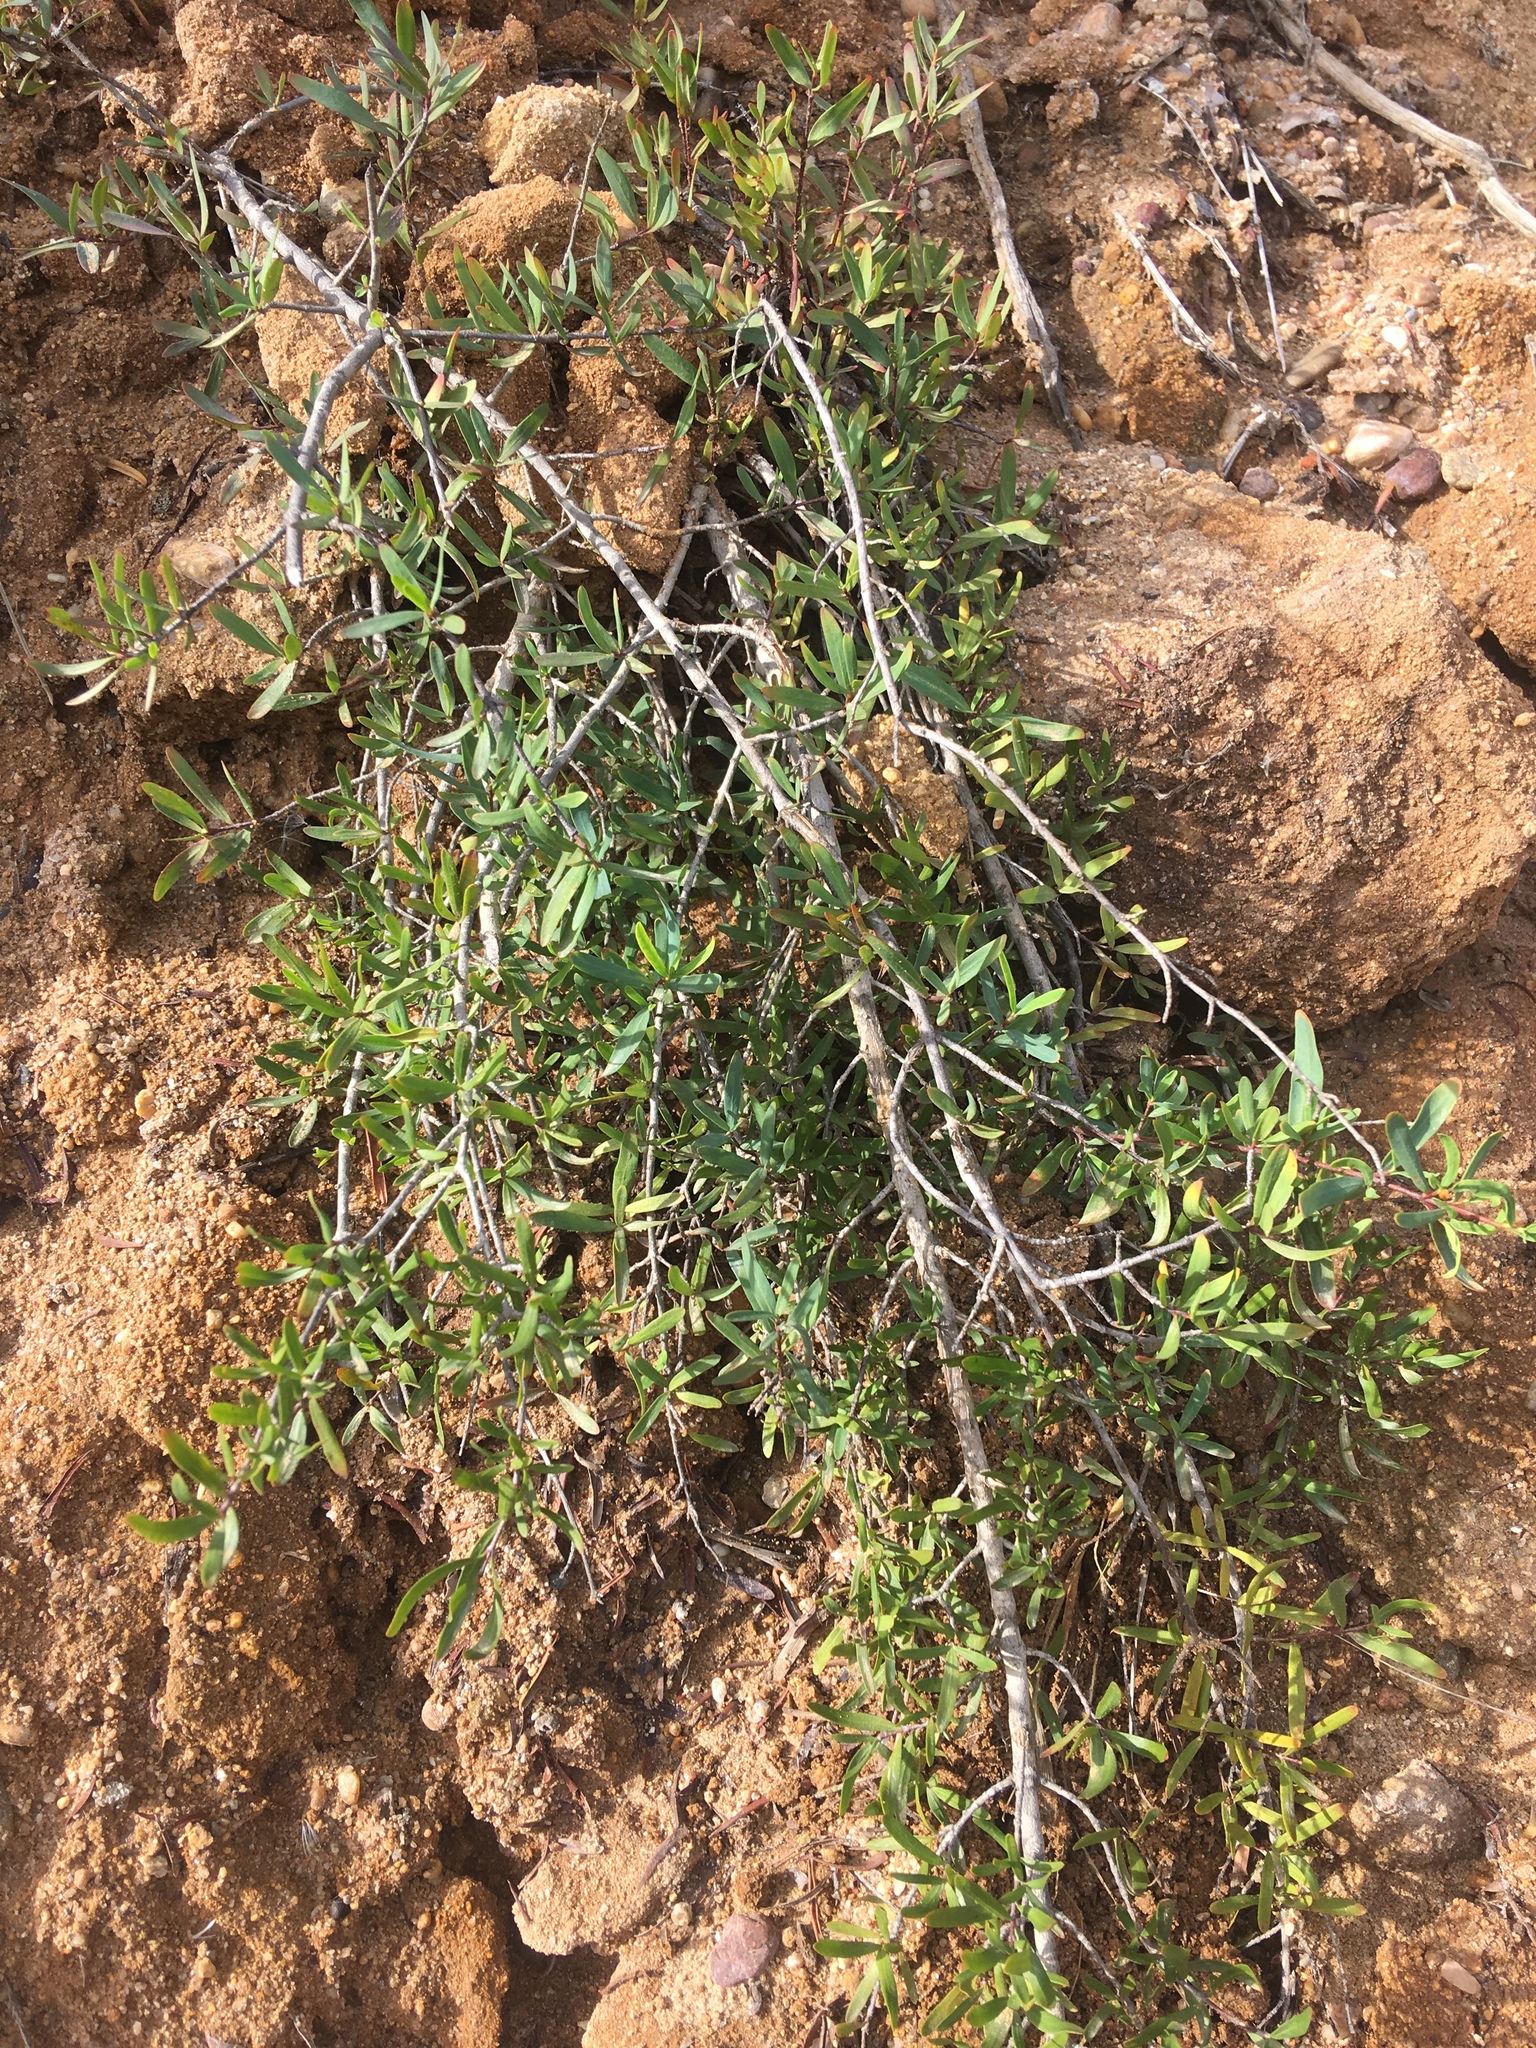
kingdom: Plantae
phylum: Tracheophyta
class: Magnoliopsida
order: Sapindales
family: Rutaceae
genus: Cneoridium
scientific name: Cneoridium dumosum
